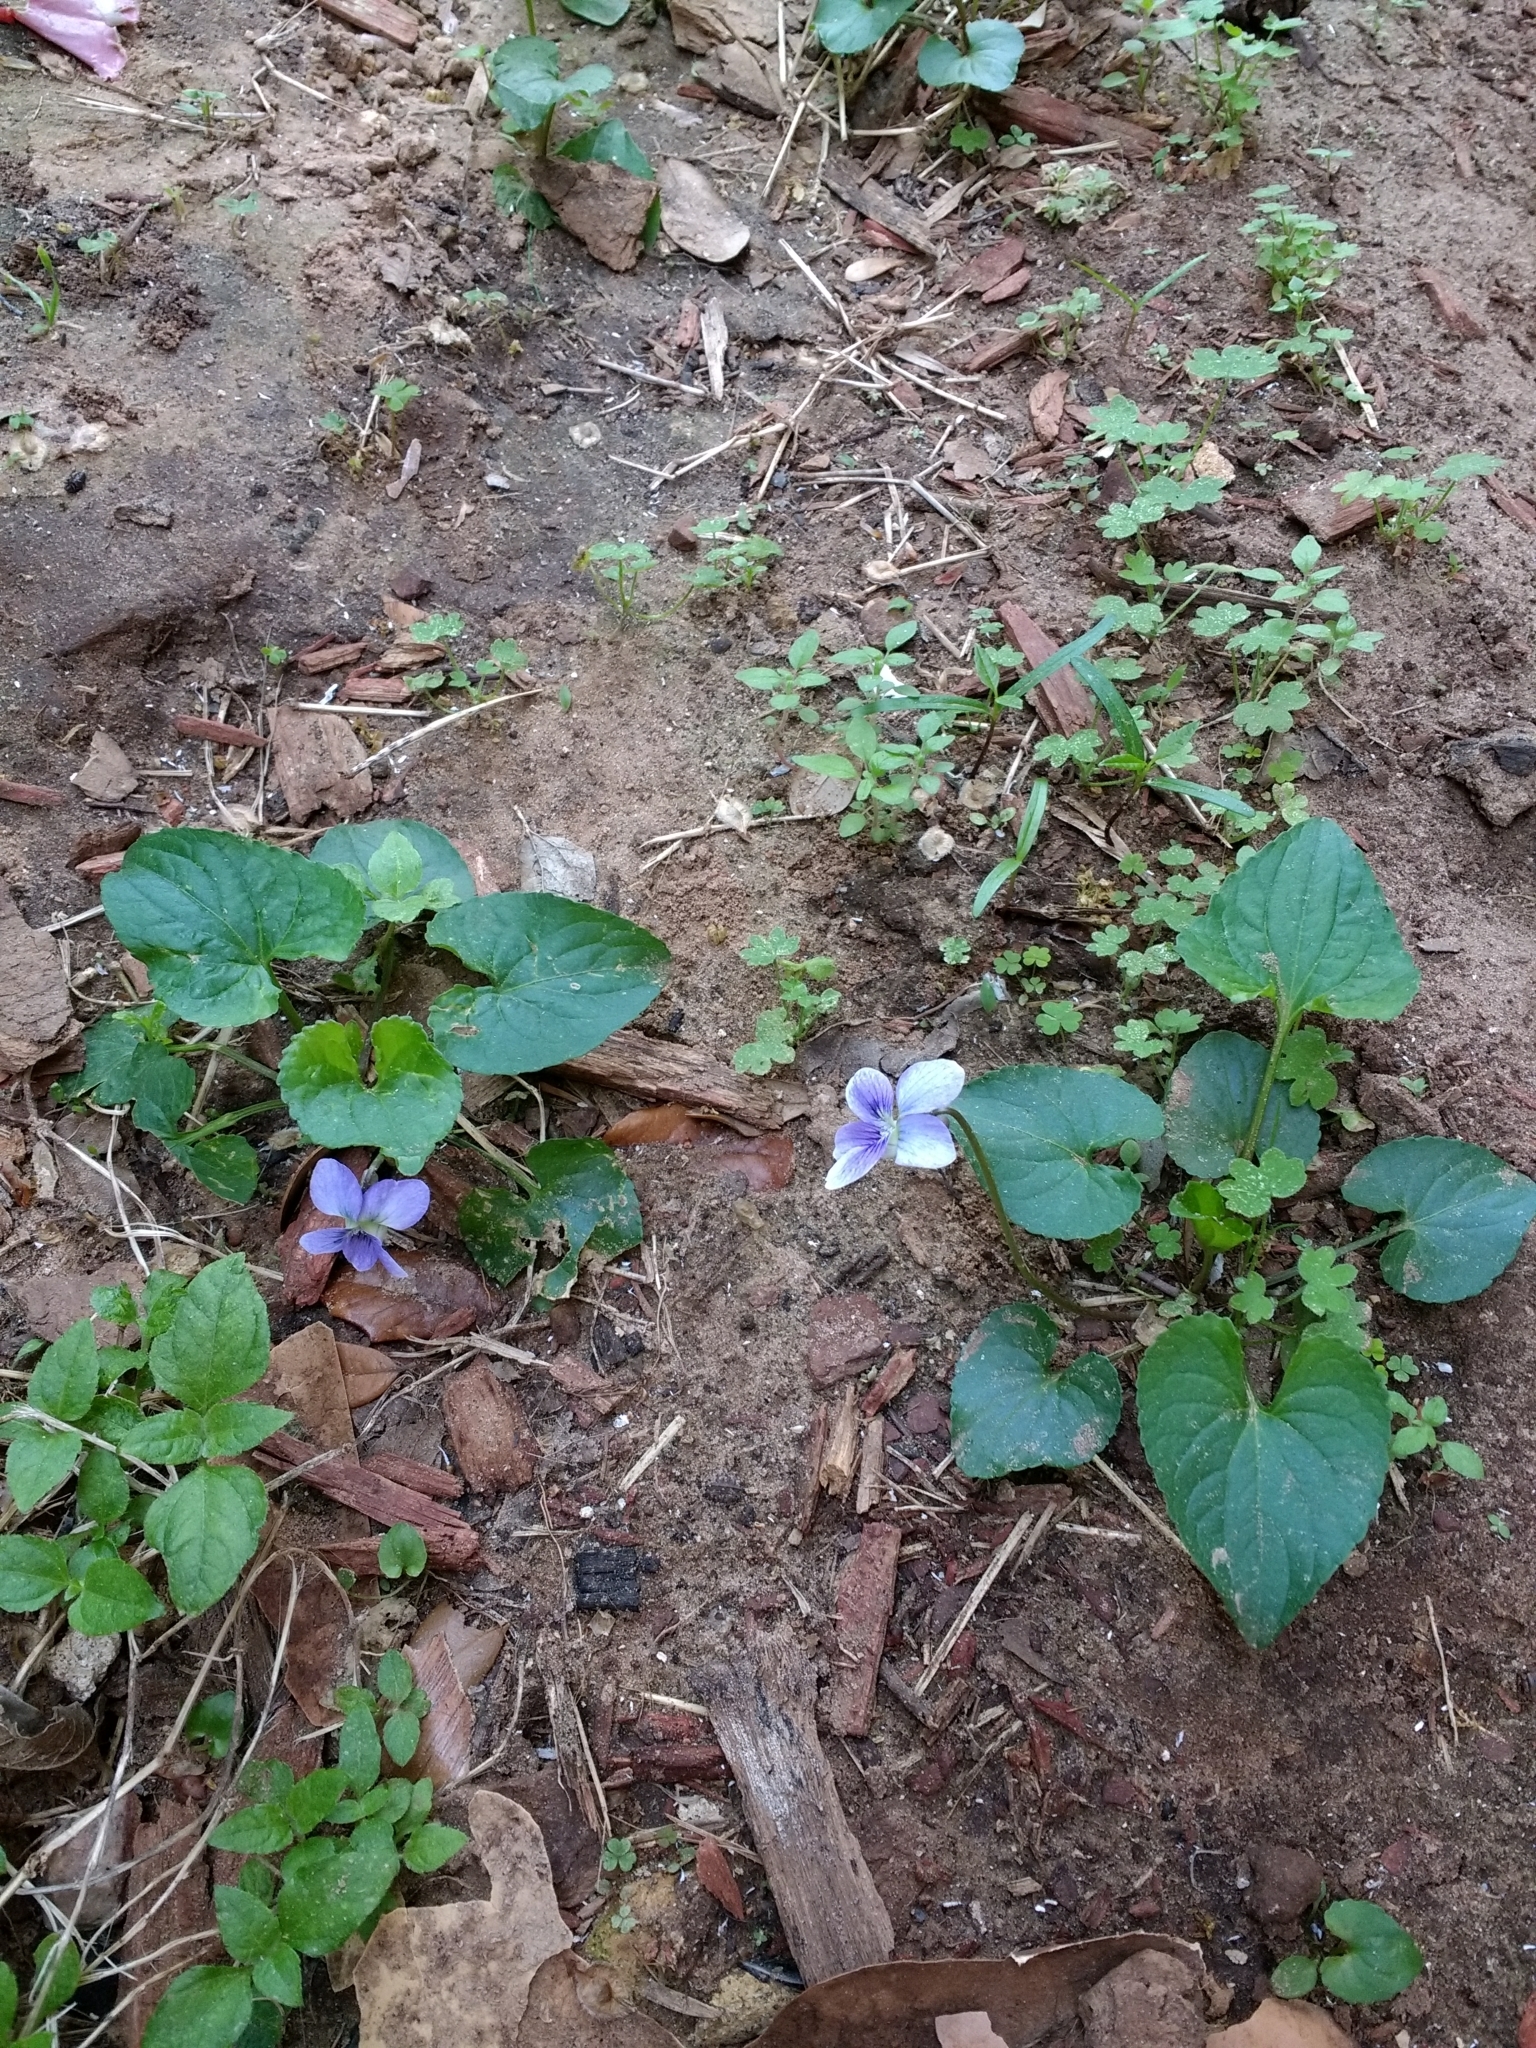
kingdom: Plantae
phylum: Tracheophyta
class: Magnoliopsida
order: Malpighiales
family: Violaceae
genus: Viola
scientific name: Viola sororia
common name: Dooryard violet
